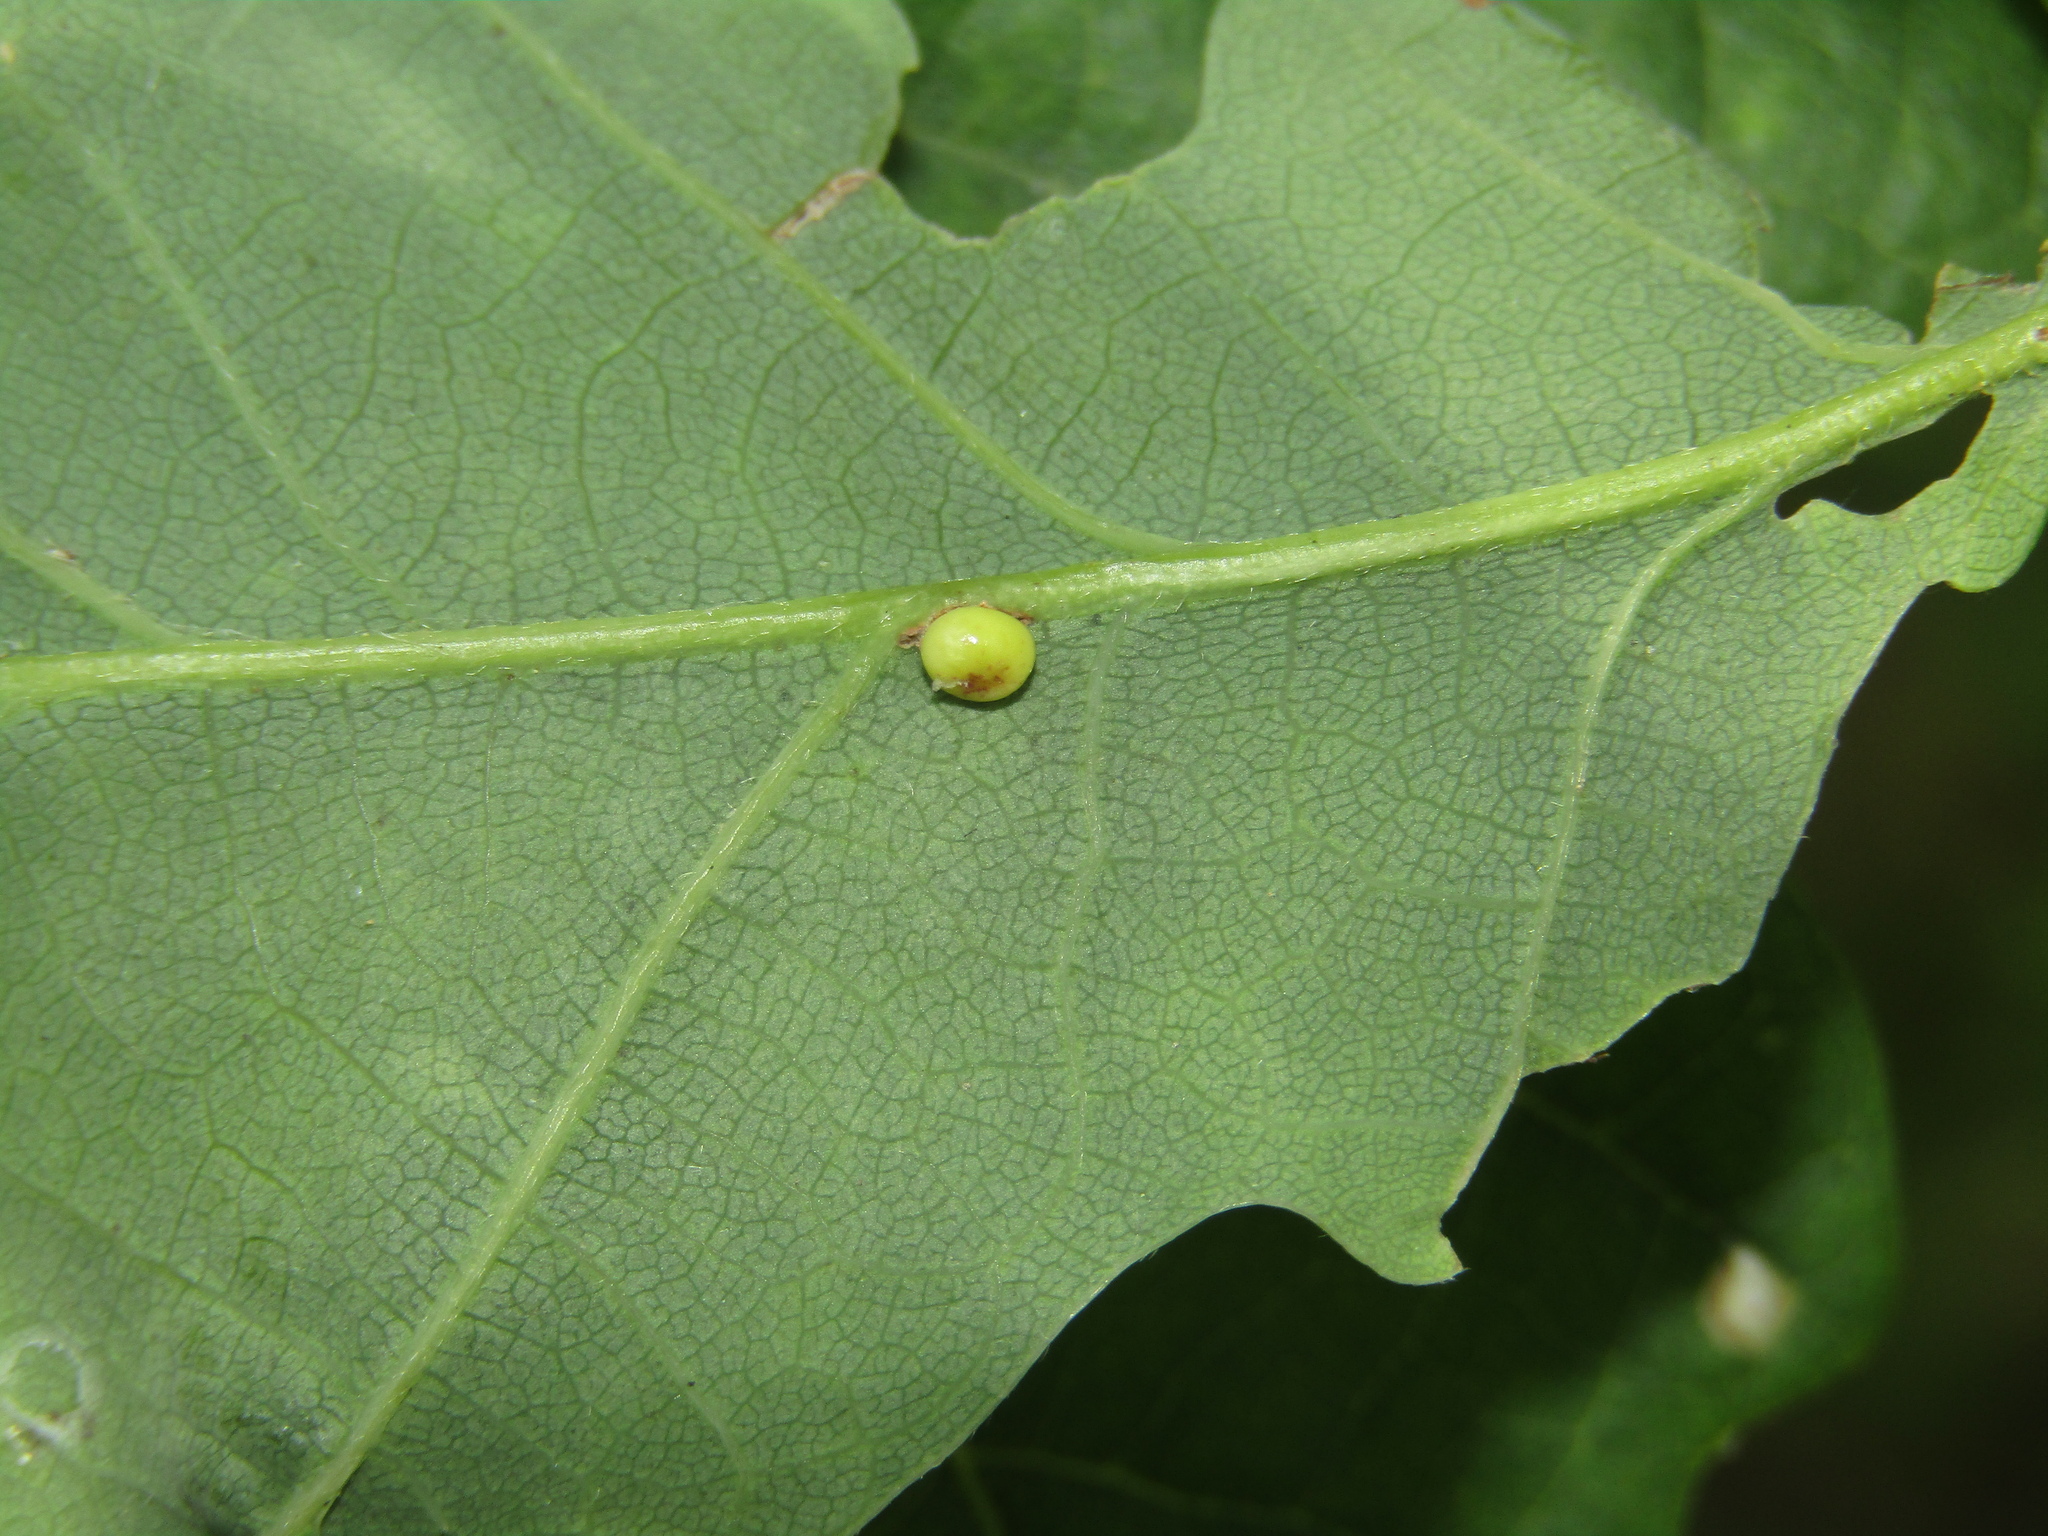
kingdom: Animalia
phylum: Arthropoda
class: Insecta
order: Hymenoptera
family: Cynipidae
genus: Neuroterus
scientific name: Neuroterus anthracinus
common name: Oyster gall
